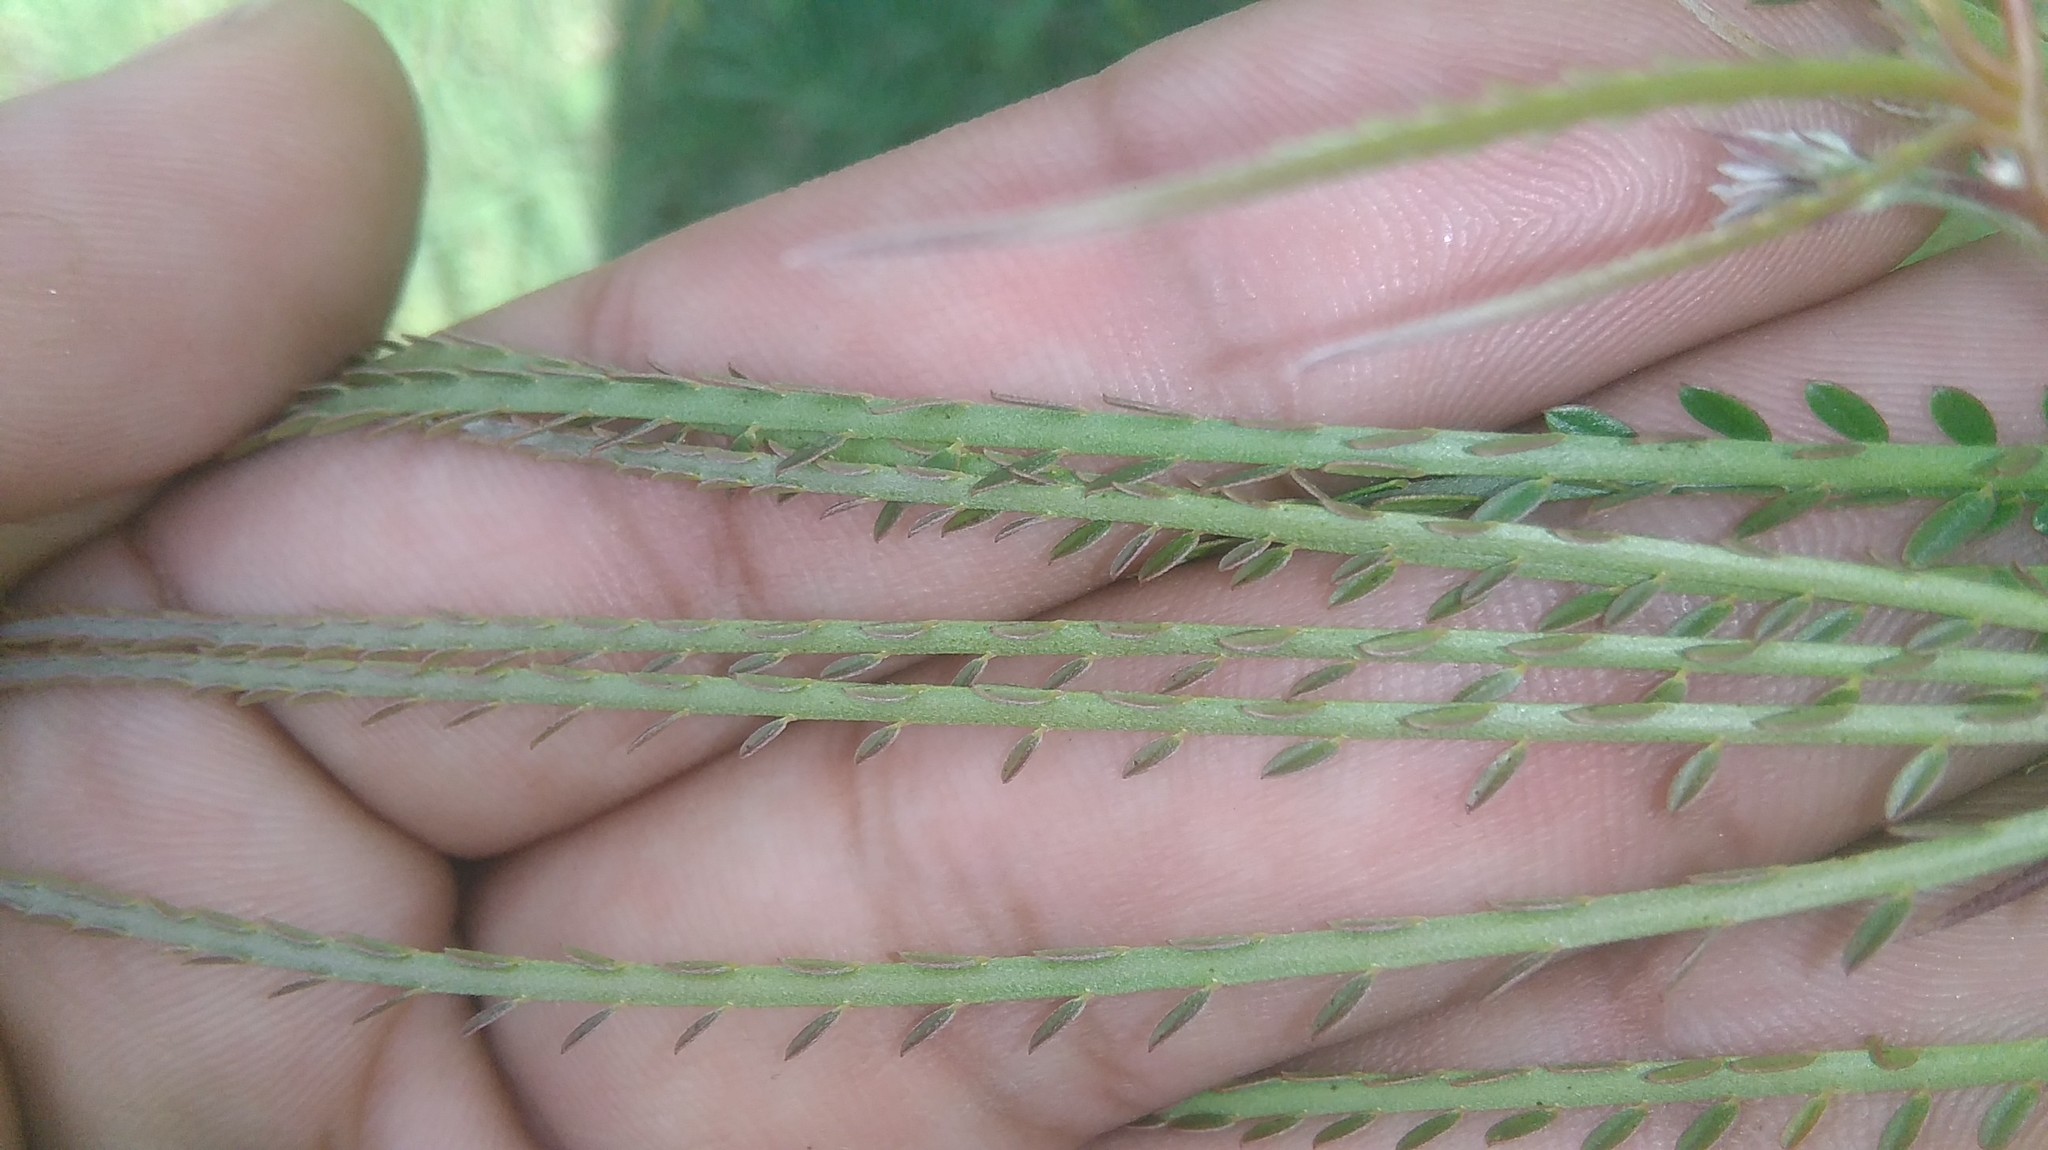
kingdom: Plantae
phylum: Tracheophyta
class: Magnoliopsida
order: Fabales
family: Fabaceae
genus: Parkinsonia
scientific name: Parkinsonia aculeata
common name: Jerusalem thorn
